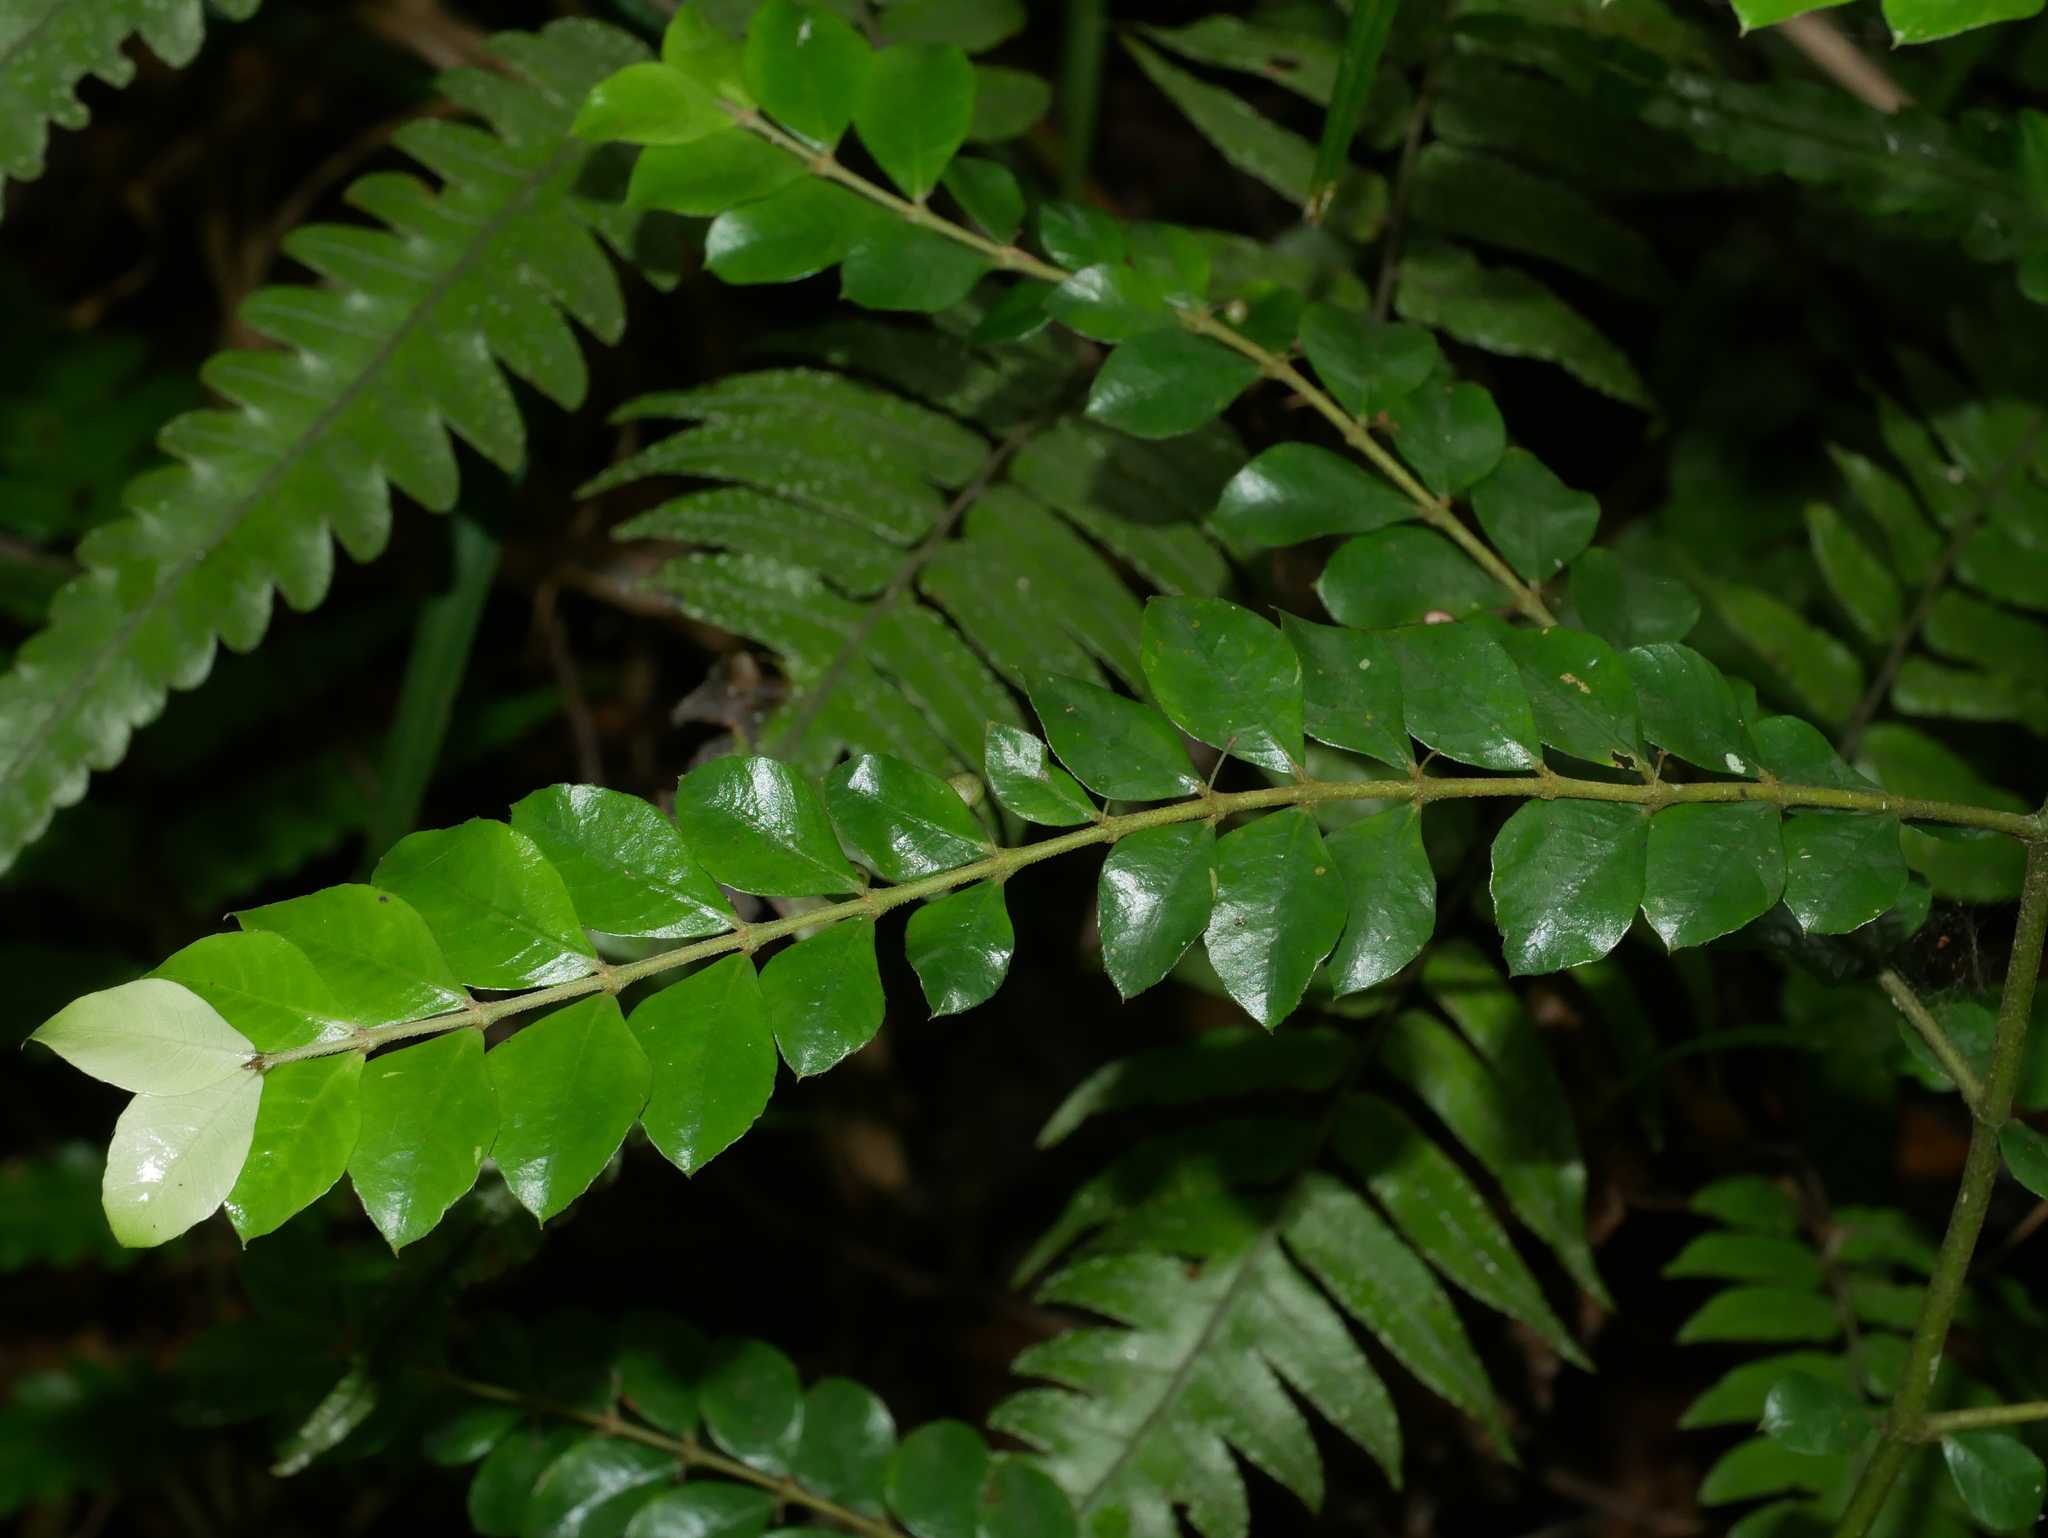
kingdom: Plantae
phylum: Tracheophyta
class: Magnoliopsida
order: Gentianales
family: Rubiaceae
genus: Lasianthus
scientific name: Lasianthus biflorus
